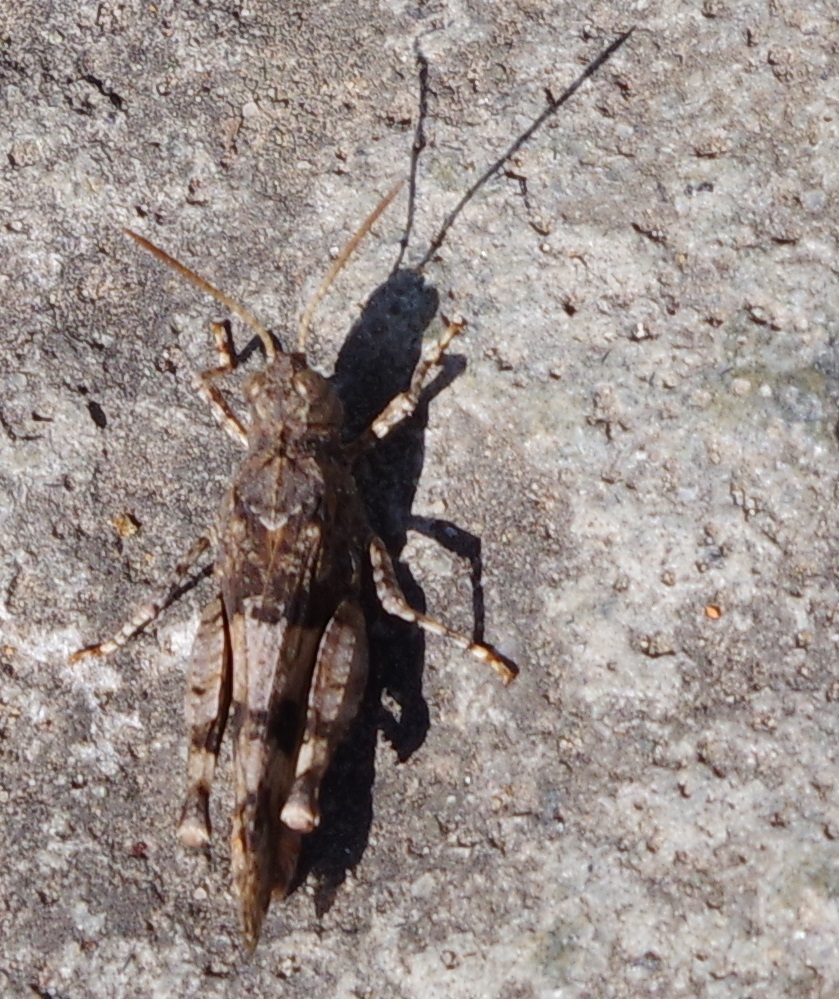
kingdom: Animalia
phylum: Arthropoda
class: Insecta
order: Orthoptera
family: Acrididae
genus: Oedipoda
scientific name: Oedipoda caerulescens
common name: Blue-winged grasshopper
